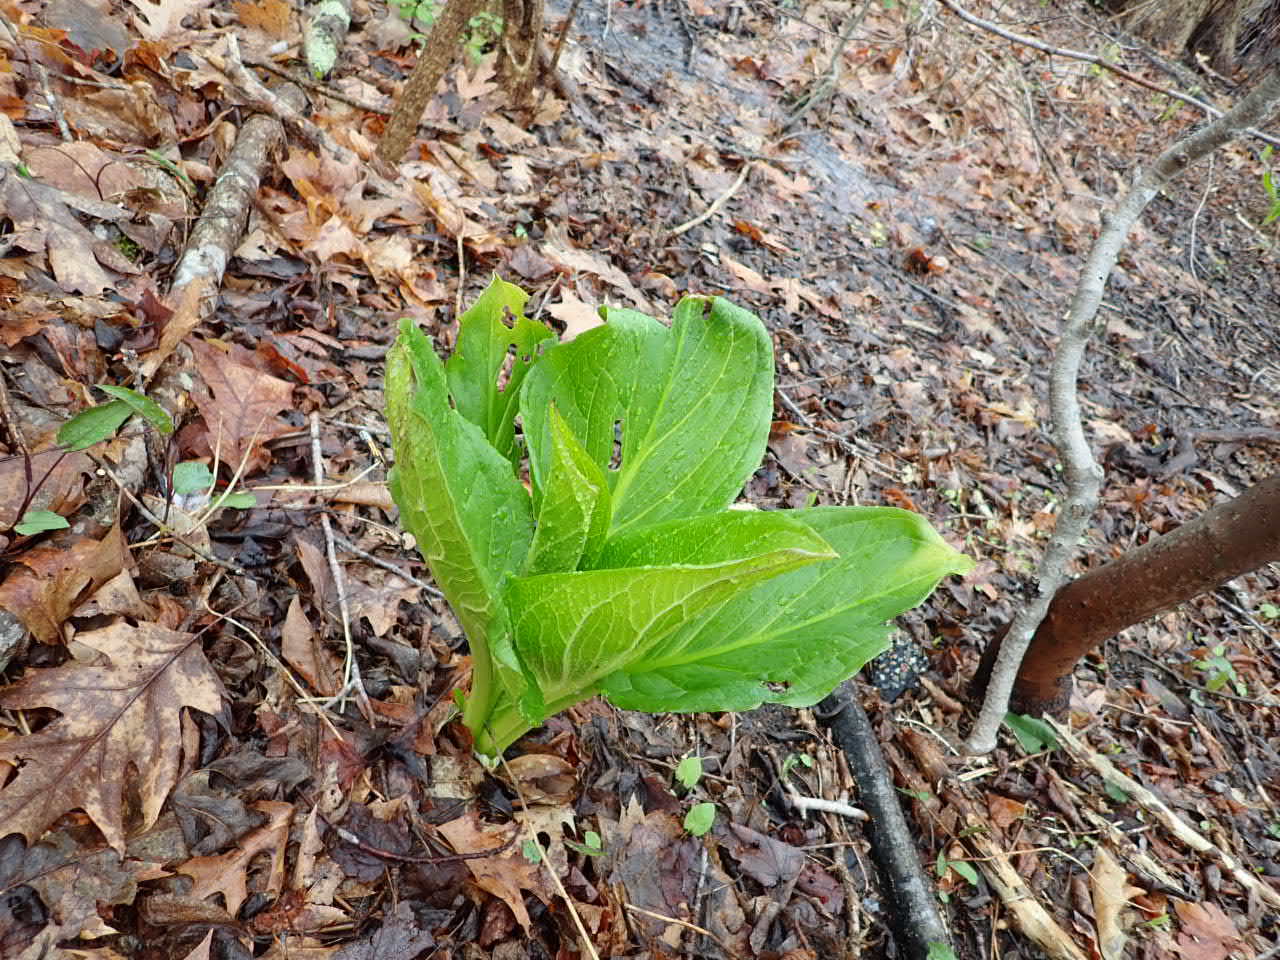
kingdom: Plantae
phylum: Tracheophyta
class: Liliopsida
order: Alismatales
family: Araceae
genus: Symplocarpus
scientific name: Symplocarpus foetidus
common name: Eastern skunk cabbage
